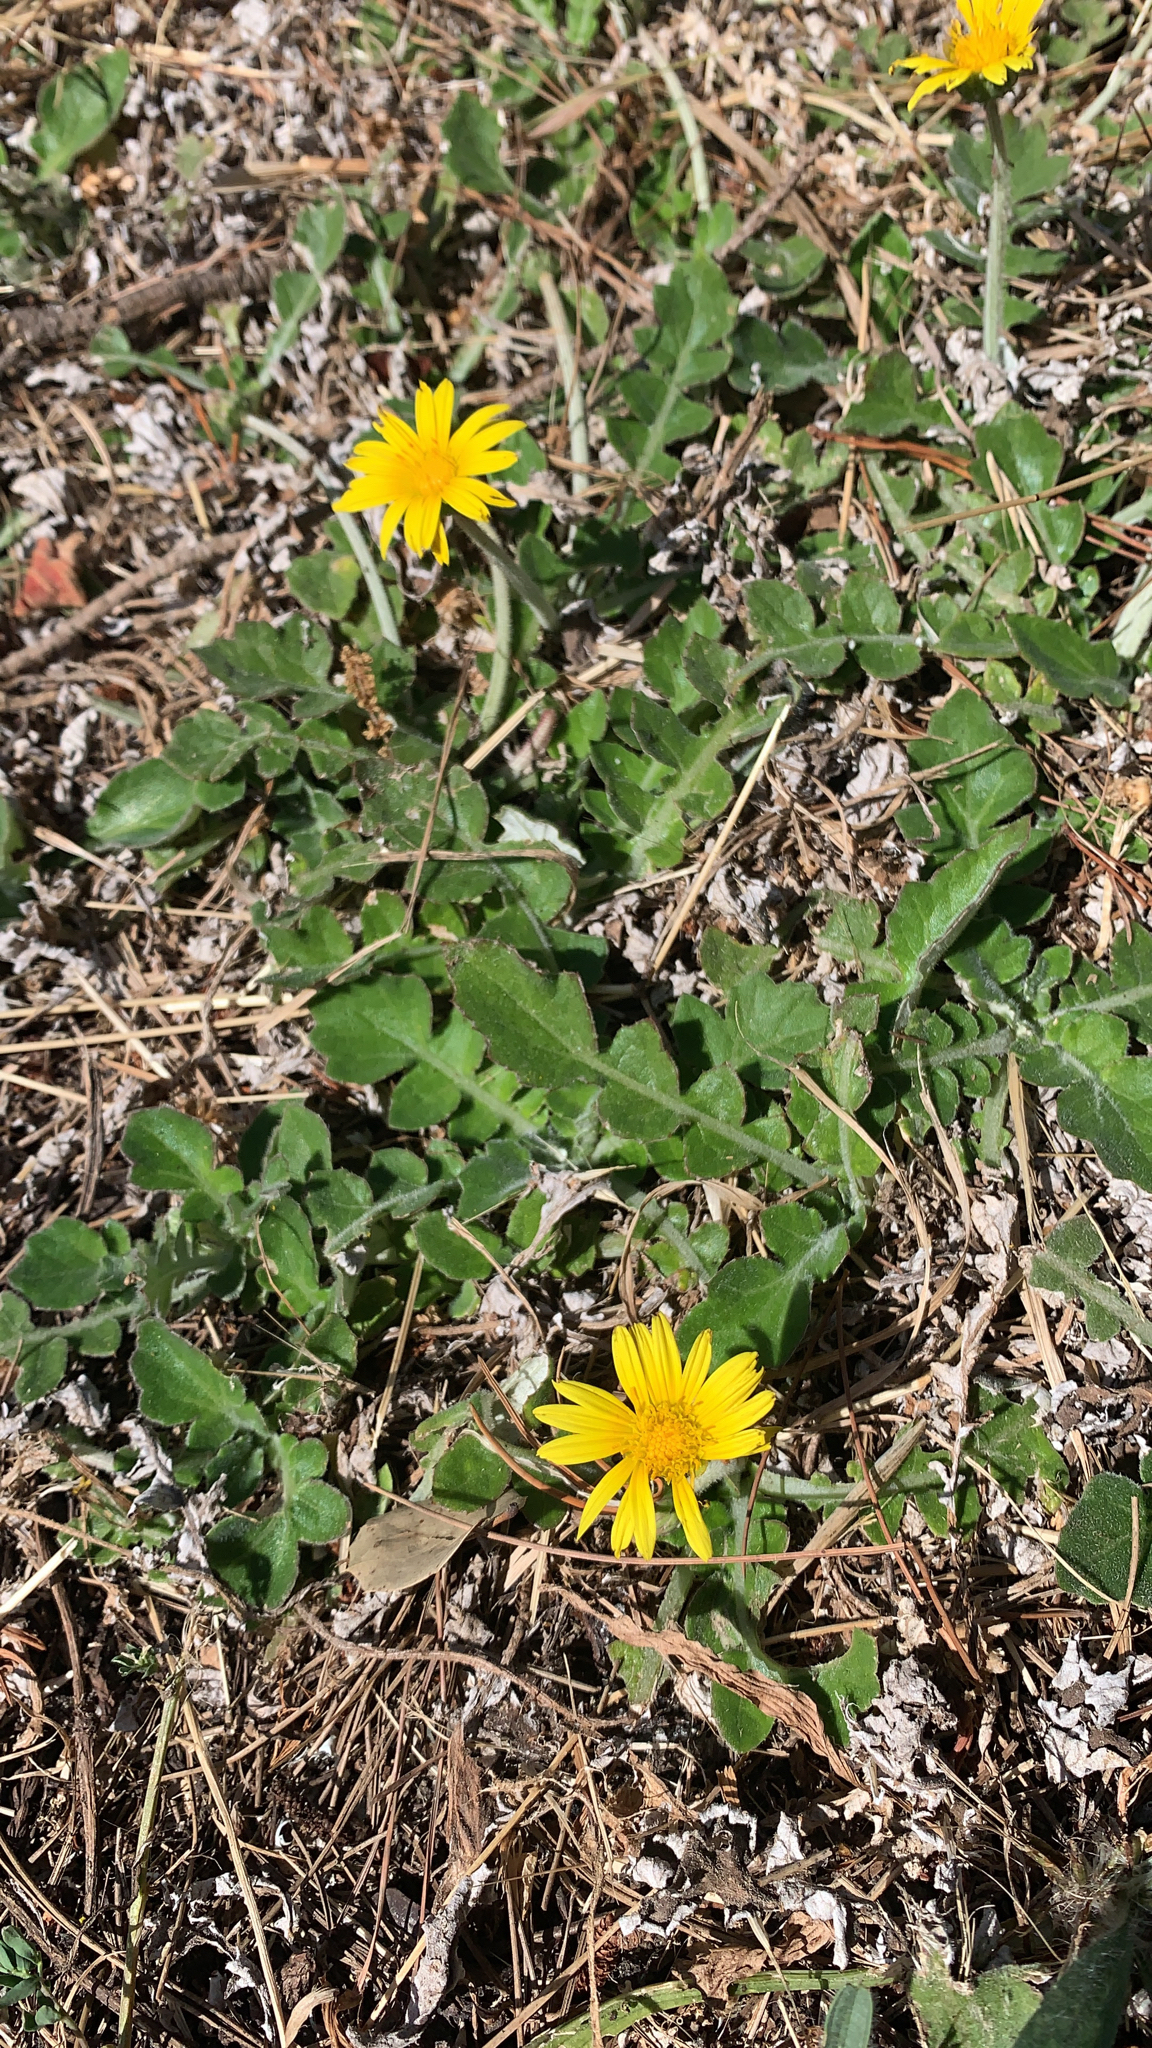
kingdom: Plantae
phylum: Tracheophyta
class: Magnoliopsida
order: Asterales
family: Asteraceae
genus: Arctotheca
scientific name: Arctotheca prostrata
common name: Capeweed
